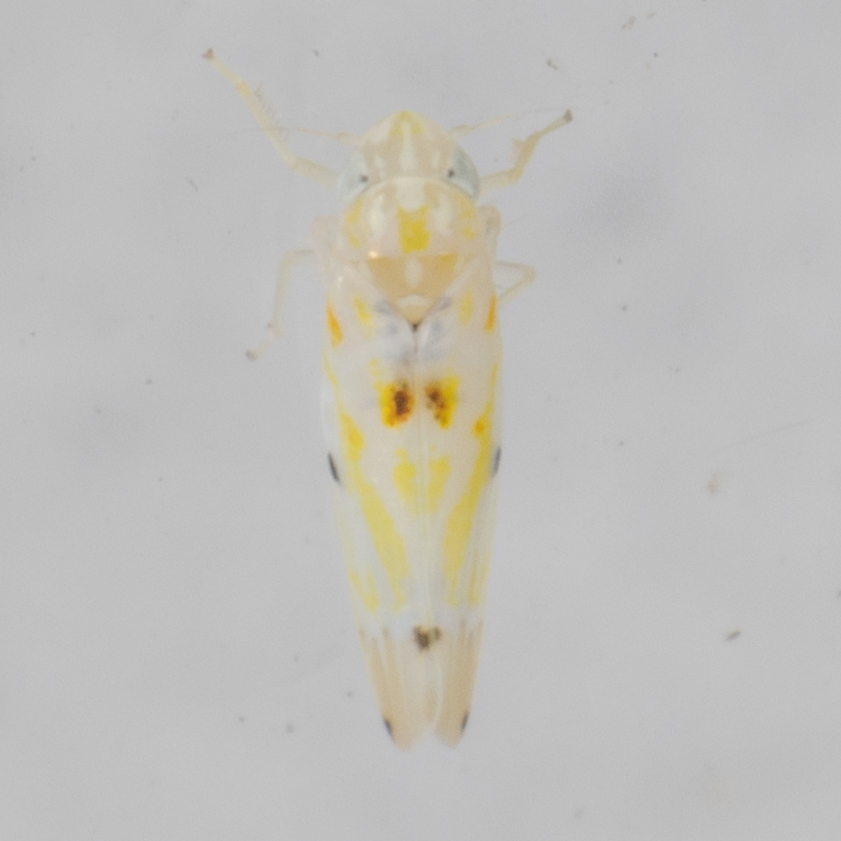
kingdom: Animalia
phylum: Arthropoda
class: Insecta
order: Hemiptera
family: Cicadellidae
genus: Erythroneura
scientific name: Erythroneura octonotata
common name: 8-spotted leafhopper
